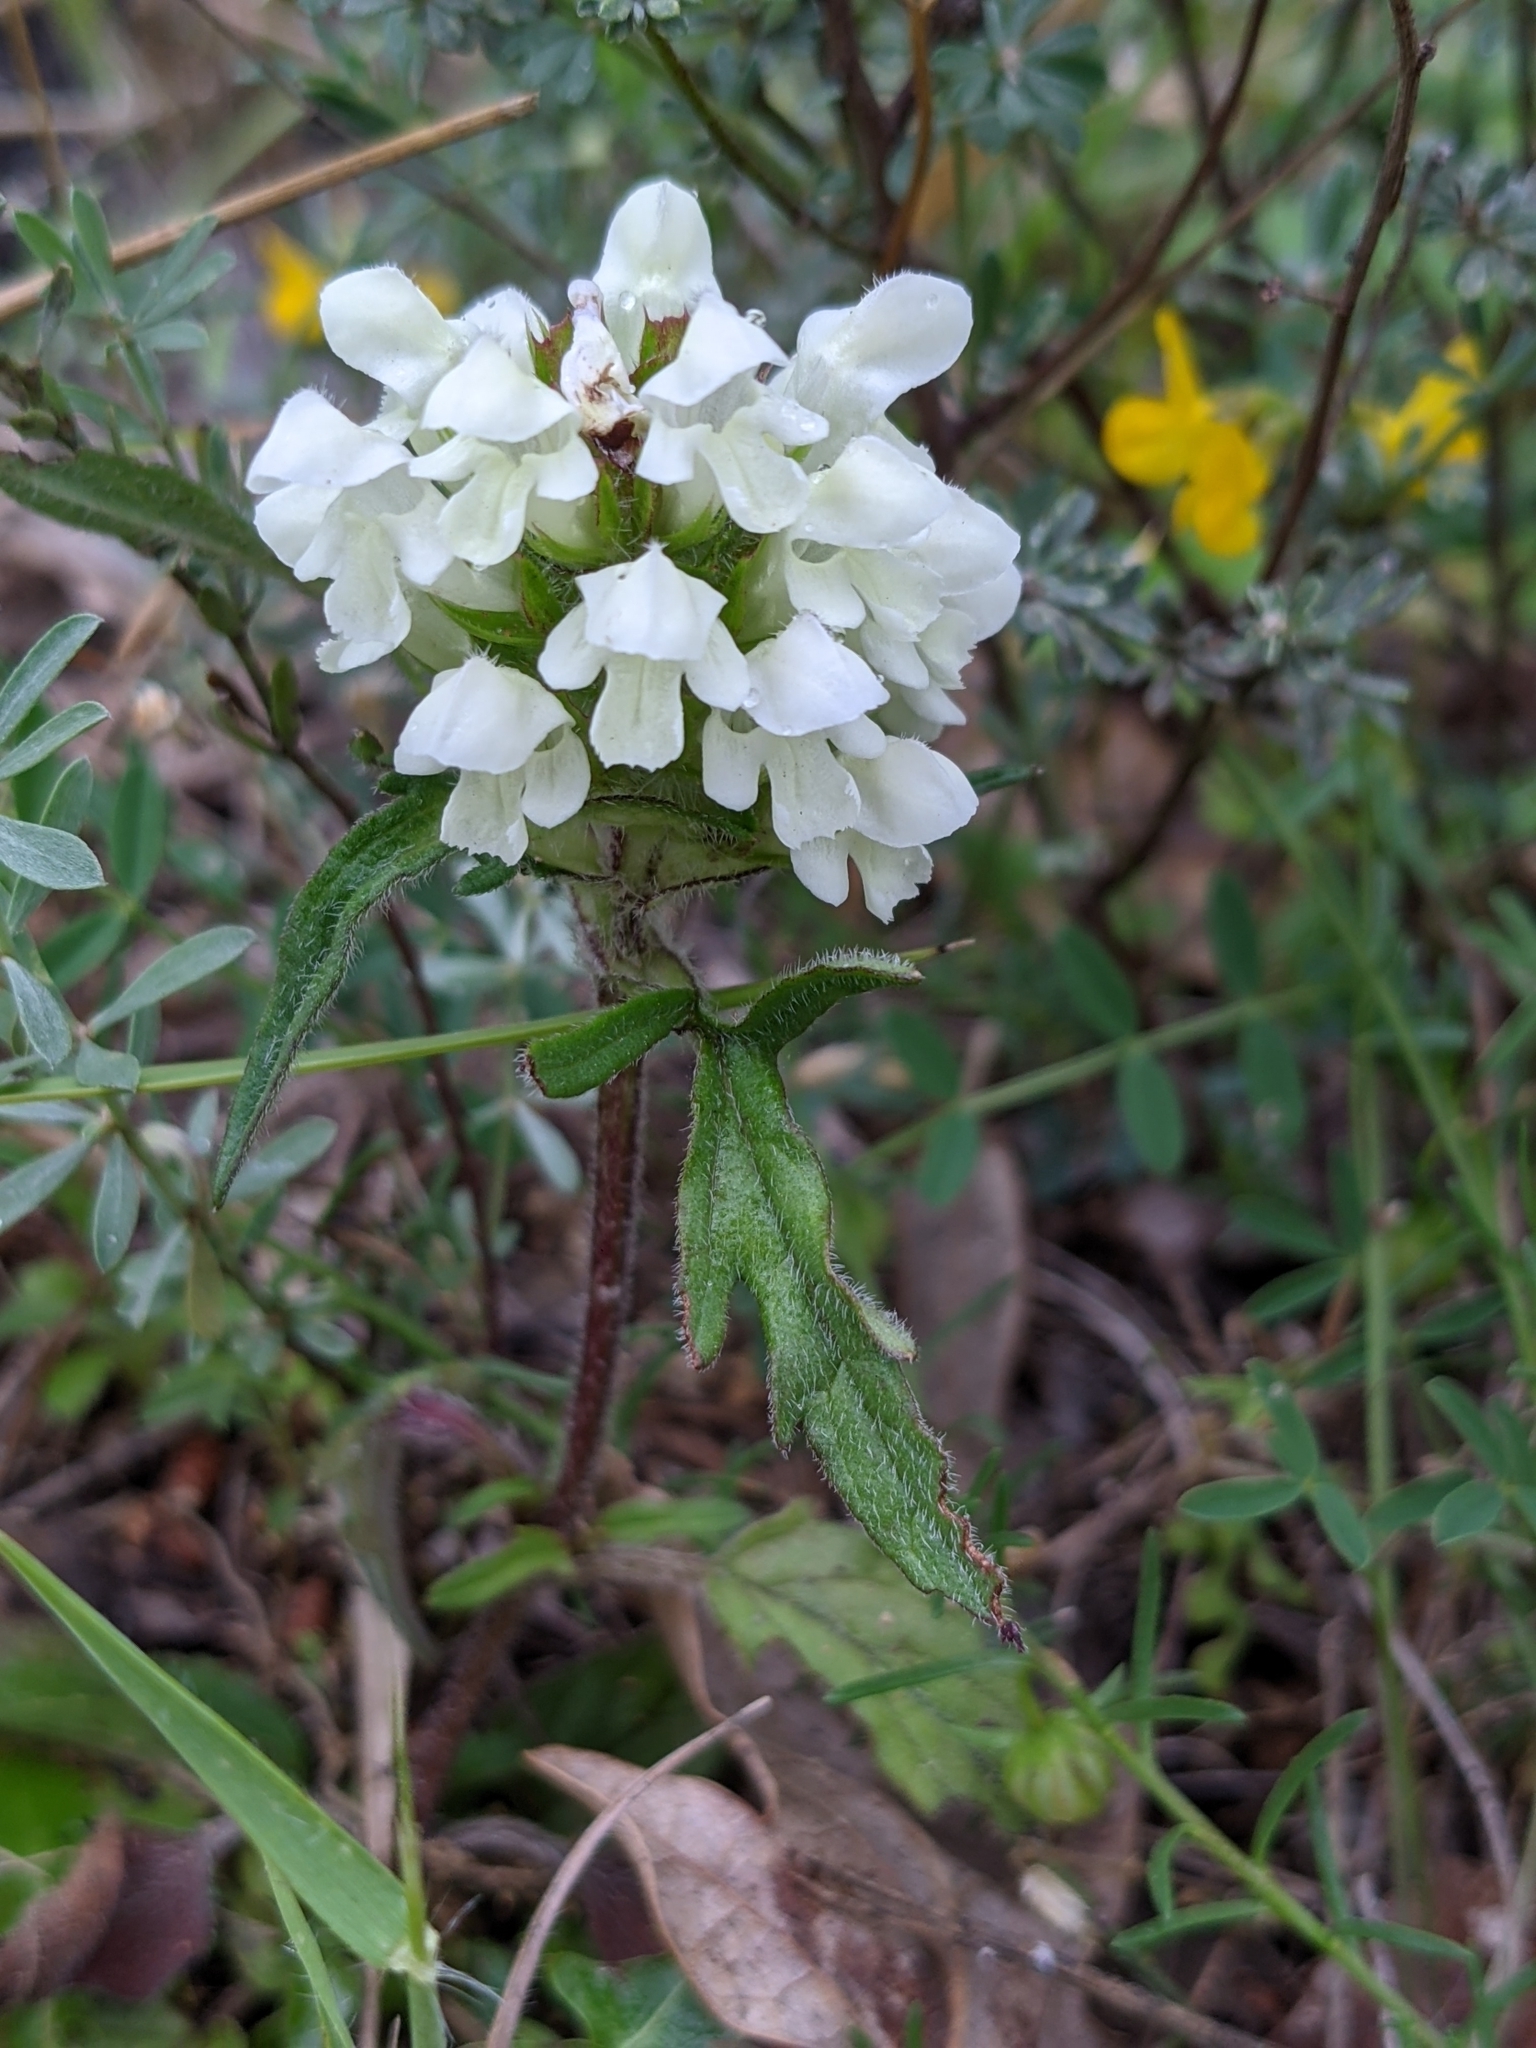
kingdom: Plantae
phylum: Tracheophyta
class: Magnoliopsida
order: Lamiales
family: Lamiaceae
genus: Prunella
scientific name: Prunella laciniata
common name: Cut-leaved selfheal
